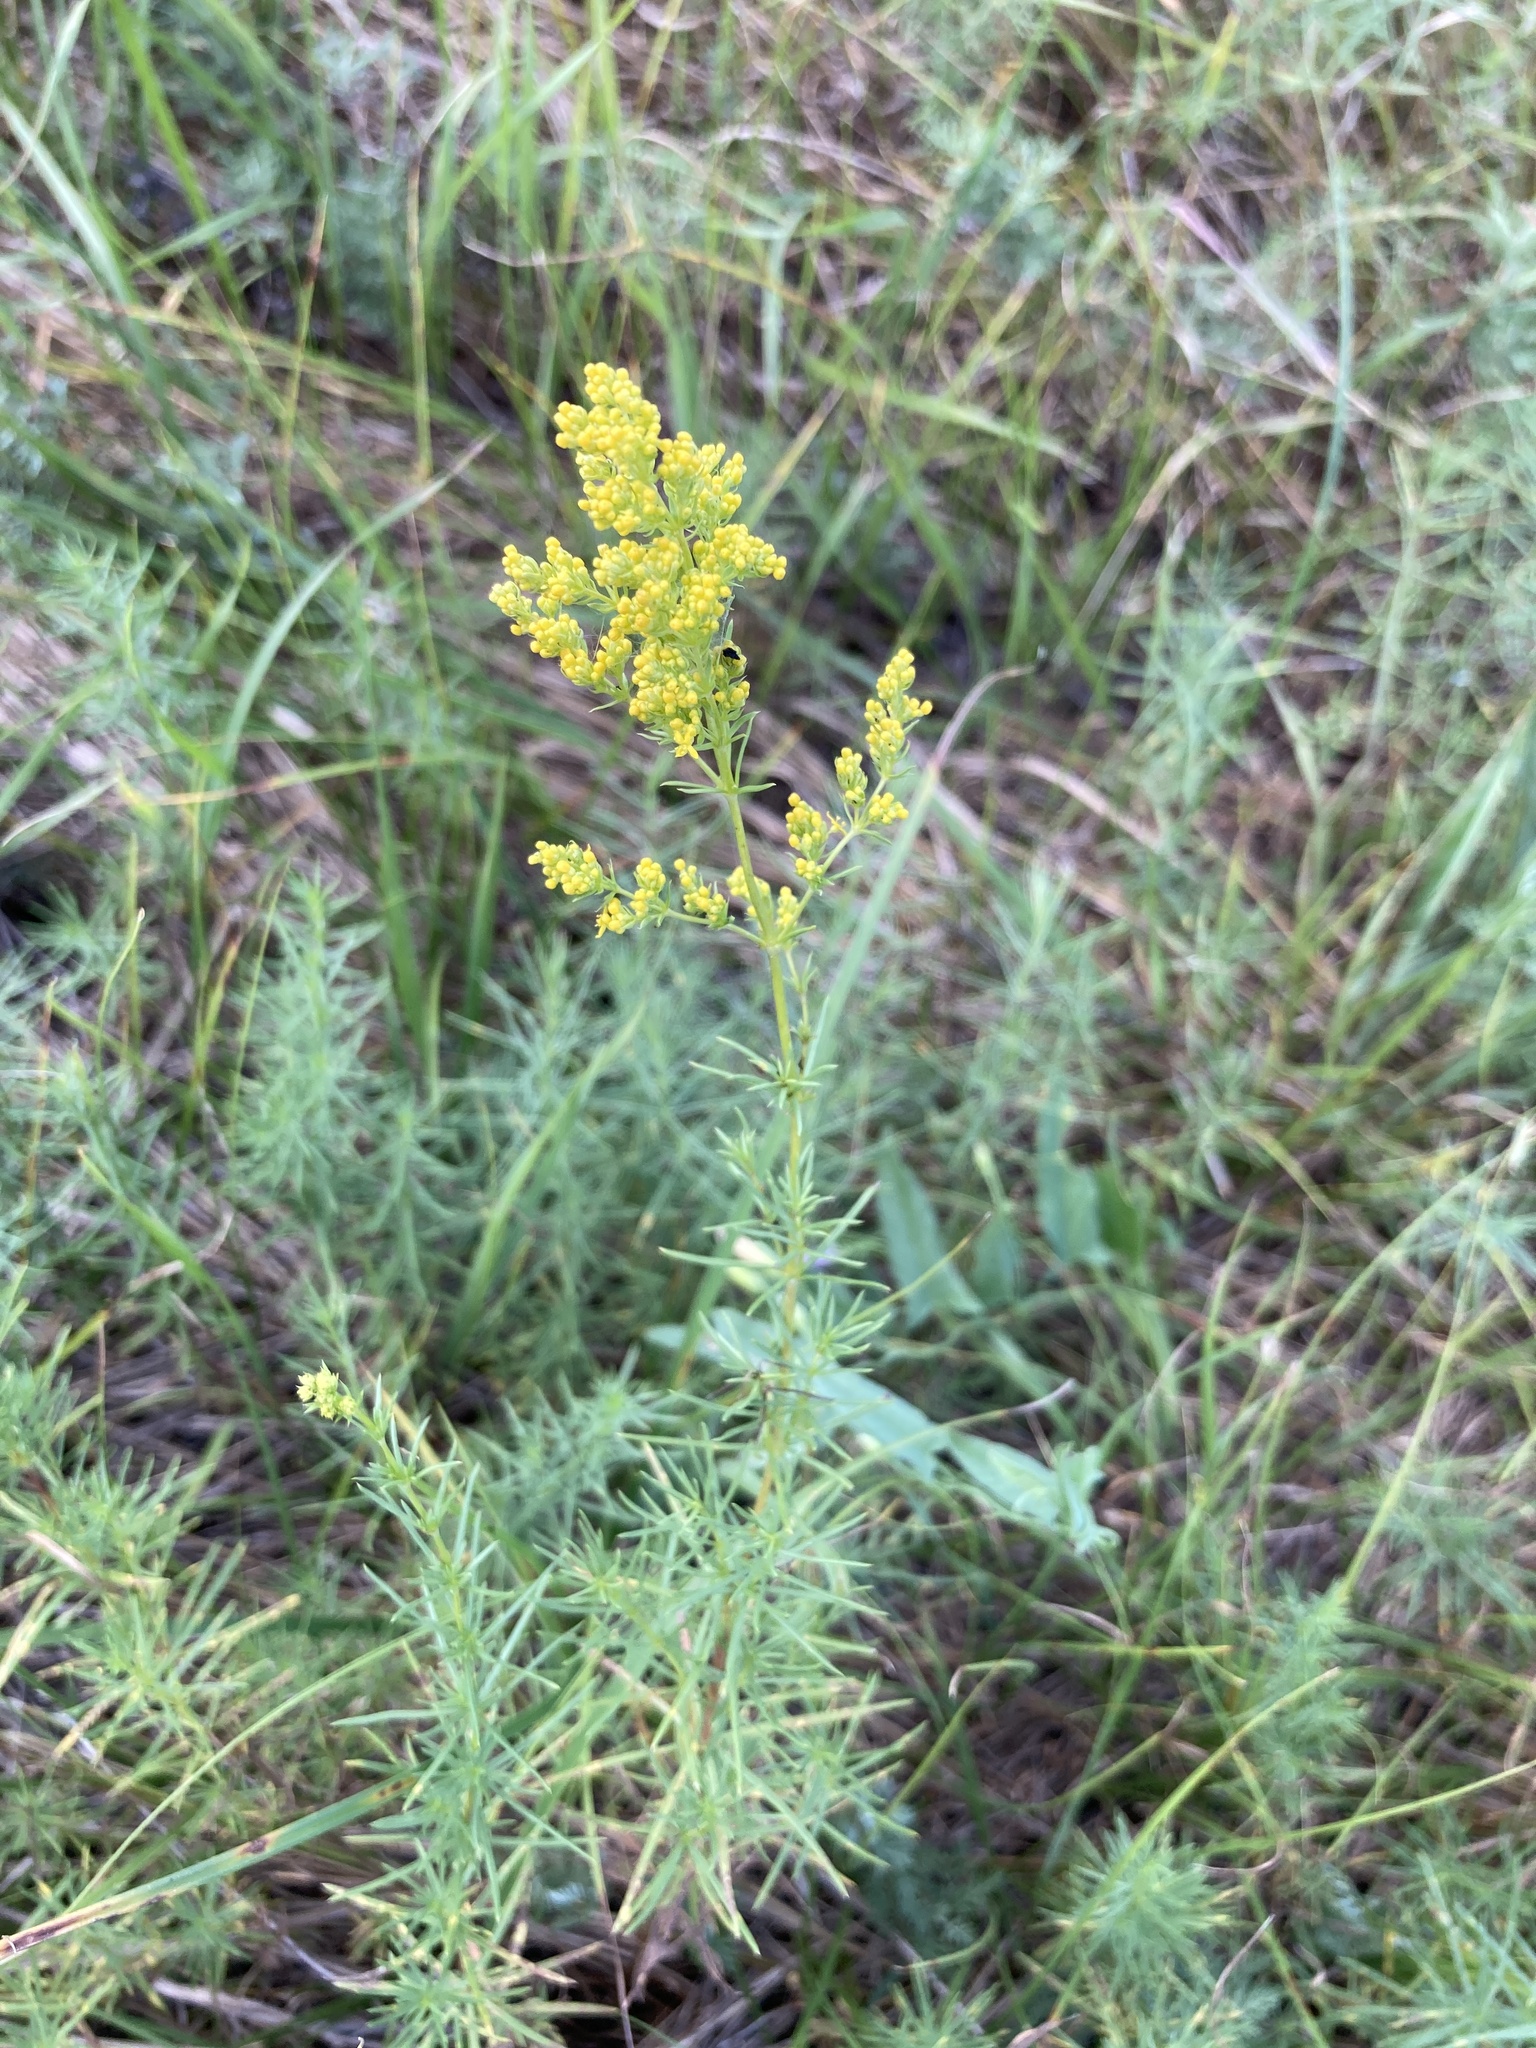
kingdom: Plantae
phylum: Tracheophyta
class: Magnoliopsida
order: Gentianales
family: Rubiaceae
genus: Galium
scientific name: Galium verum
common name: Lady's bedstraw
